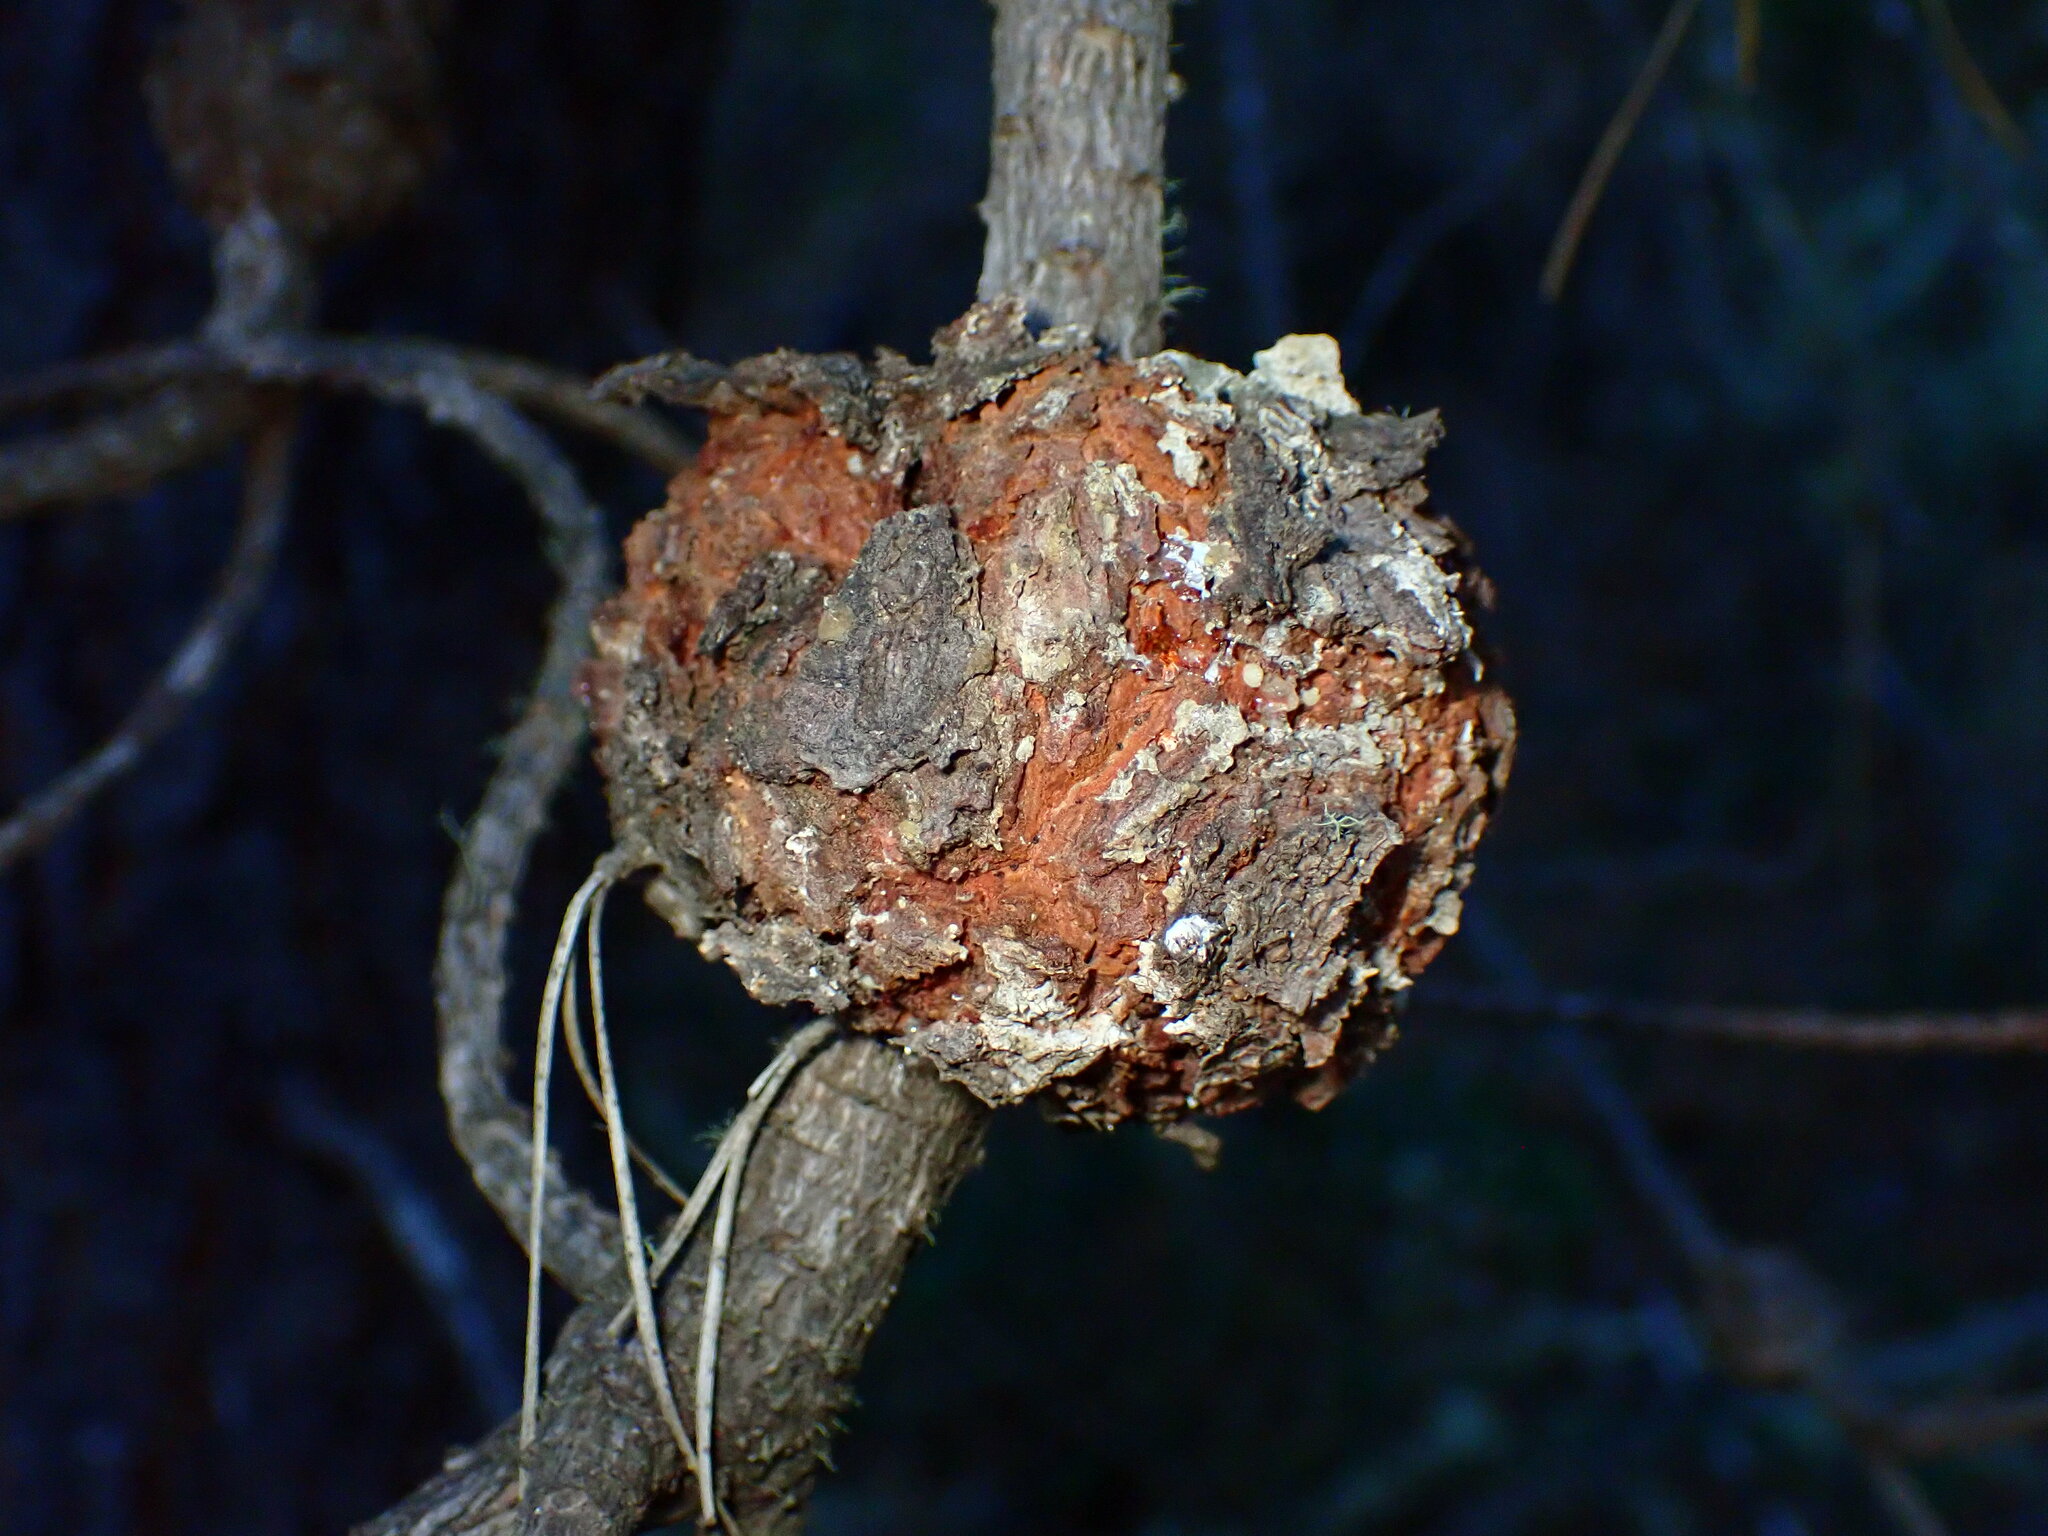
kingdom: Fungi
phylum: Basidiomycota
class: Pucciniomycetes
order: Pucciniales
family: Cronartiaceae
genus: Cronartium
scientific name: Cronartium harknessii
